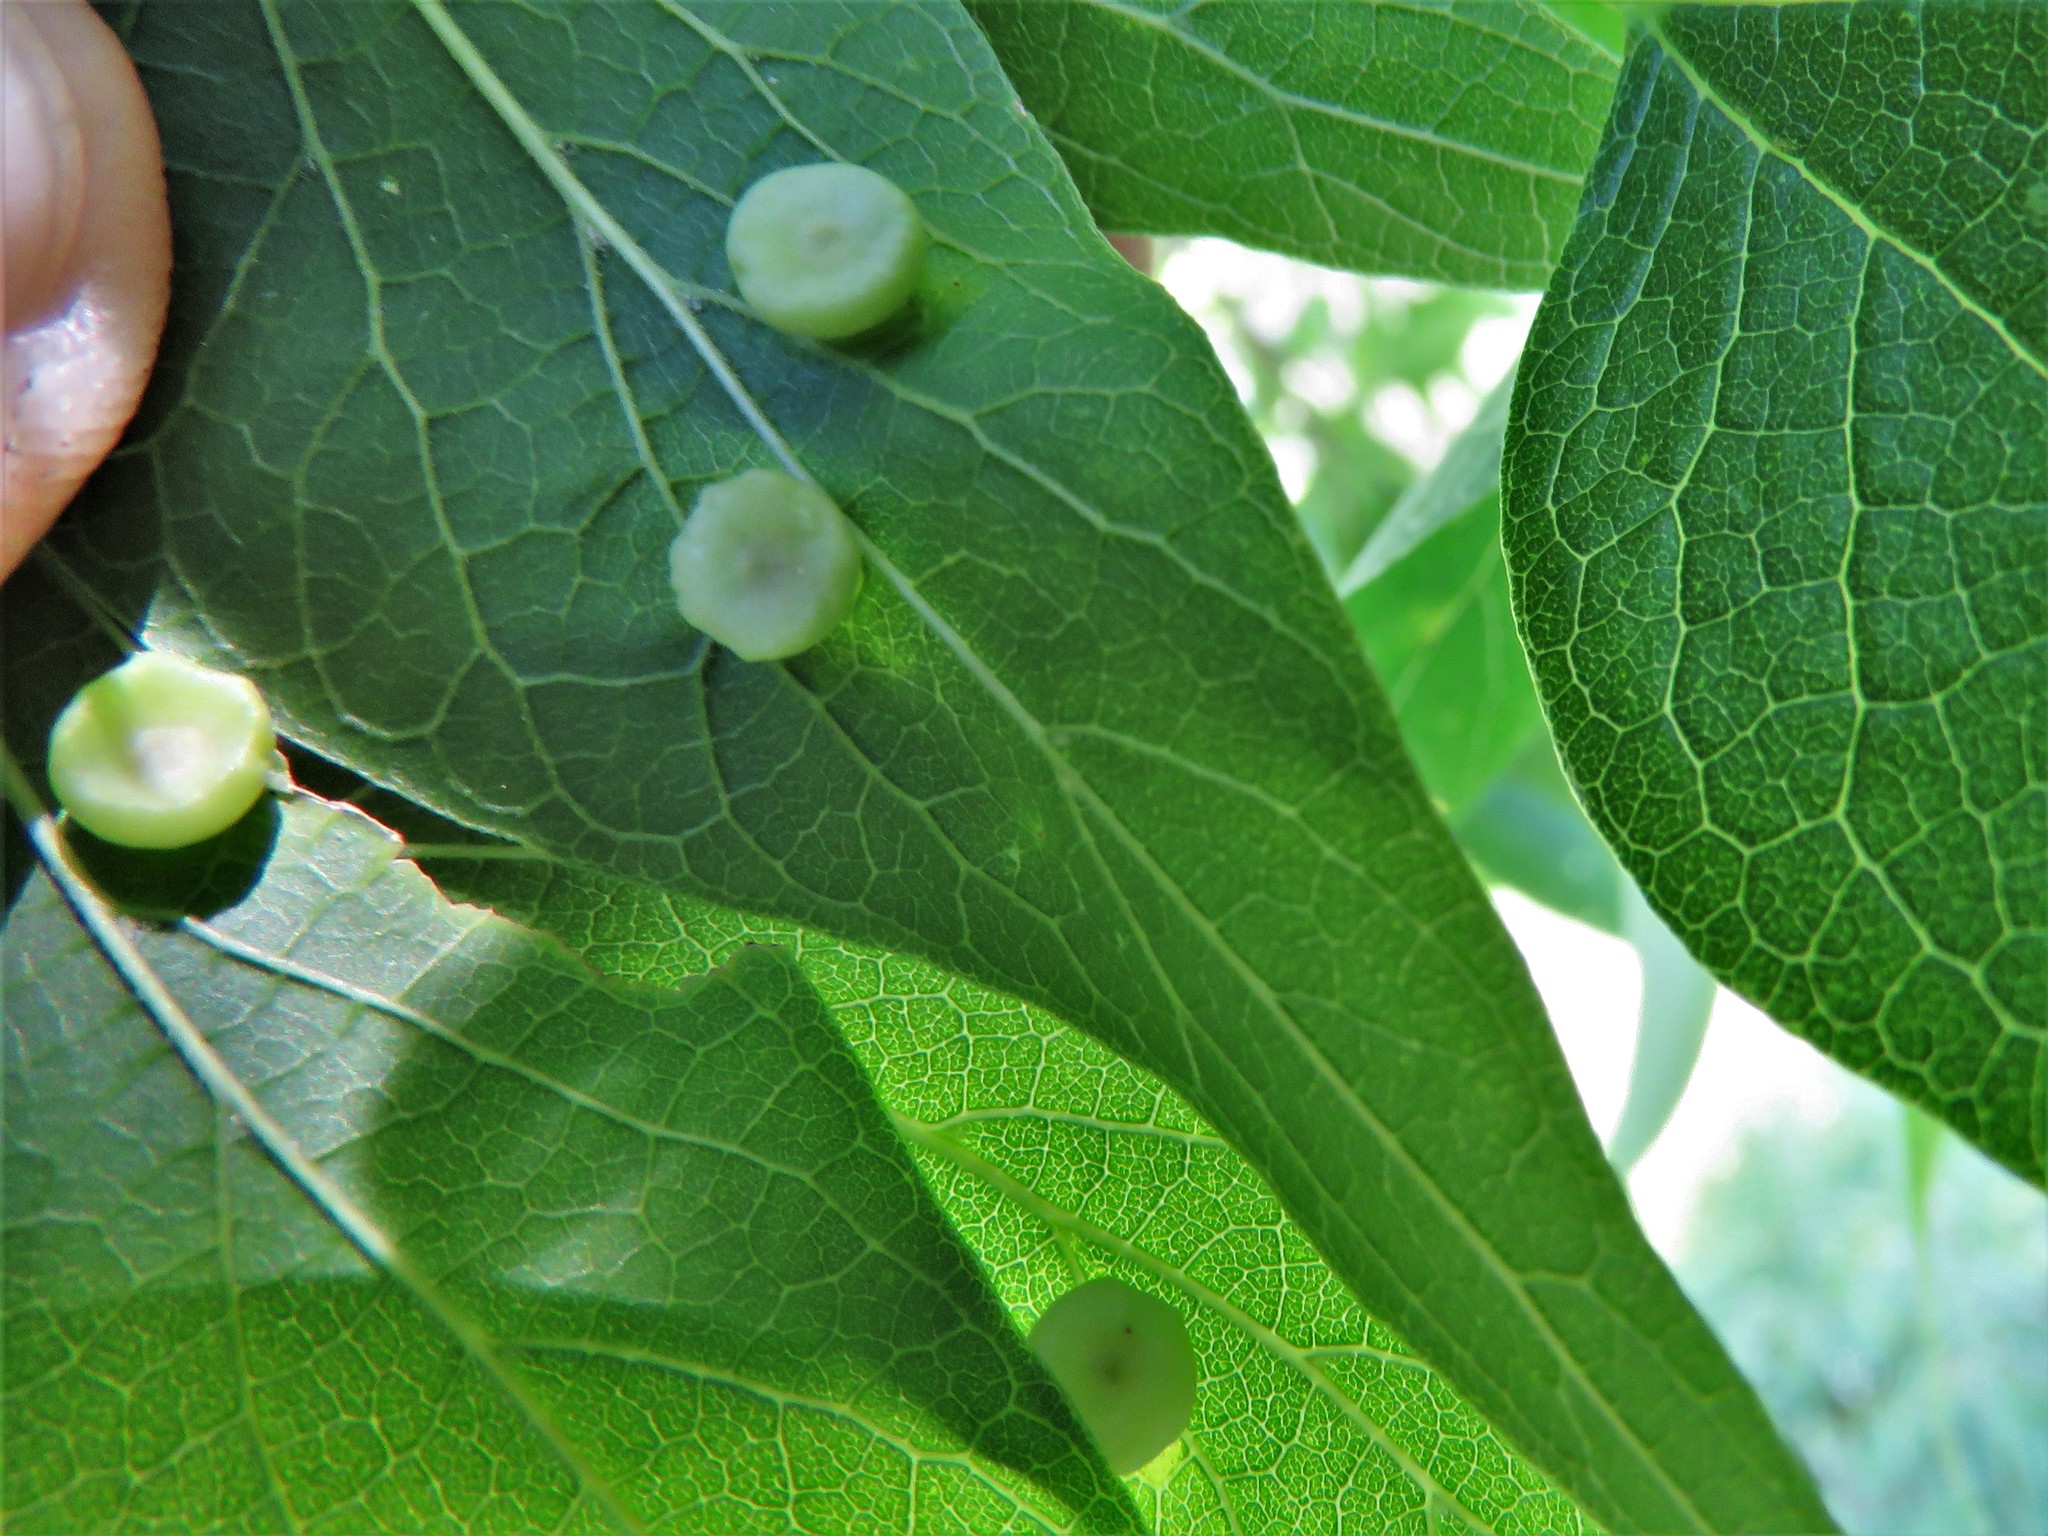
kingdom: Animalia
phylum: Arthropoda
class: Insecta
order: Hemiptera
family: Aphalaridae
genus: Pachypsylla
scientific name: Pachypsylla celtidismamma
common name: Hackberry nipplegall psyllid
